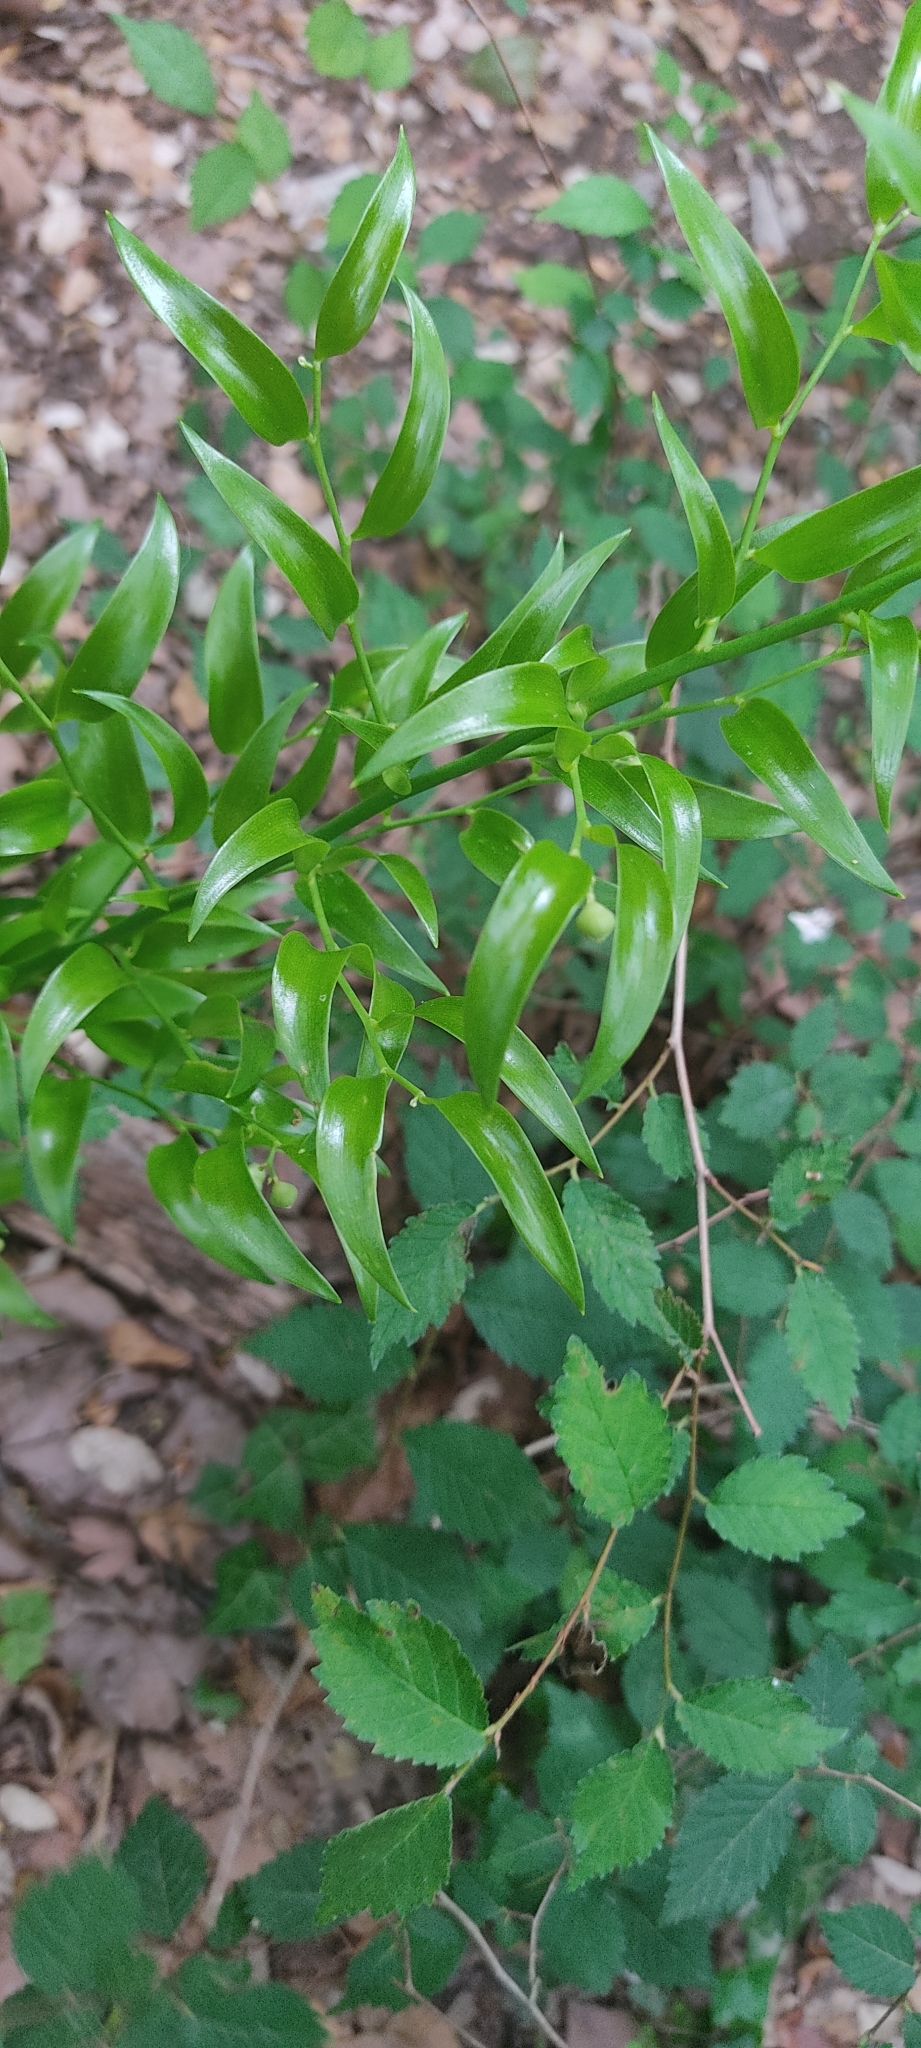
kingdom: Plantae
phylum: Tracheophyta
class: Liliopsida
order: Asparagales
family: Asparagaceae
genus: Danae
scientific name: Danae racemosa
